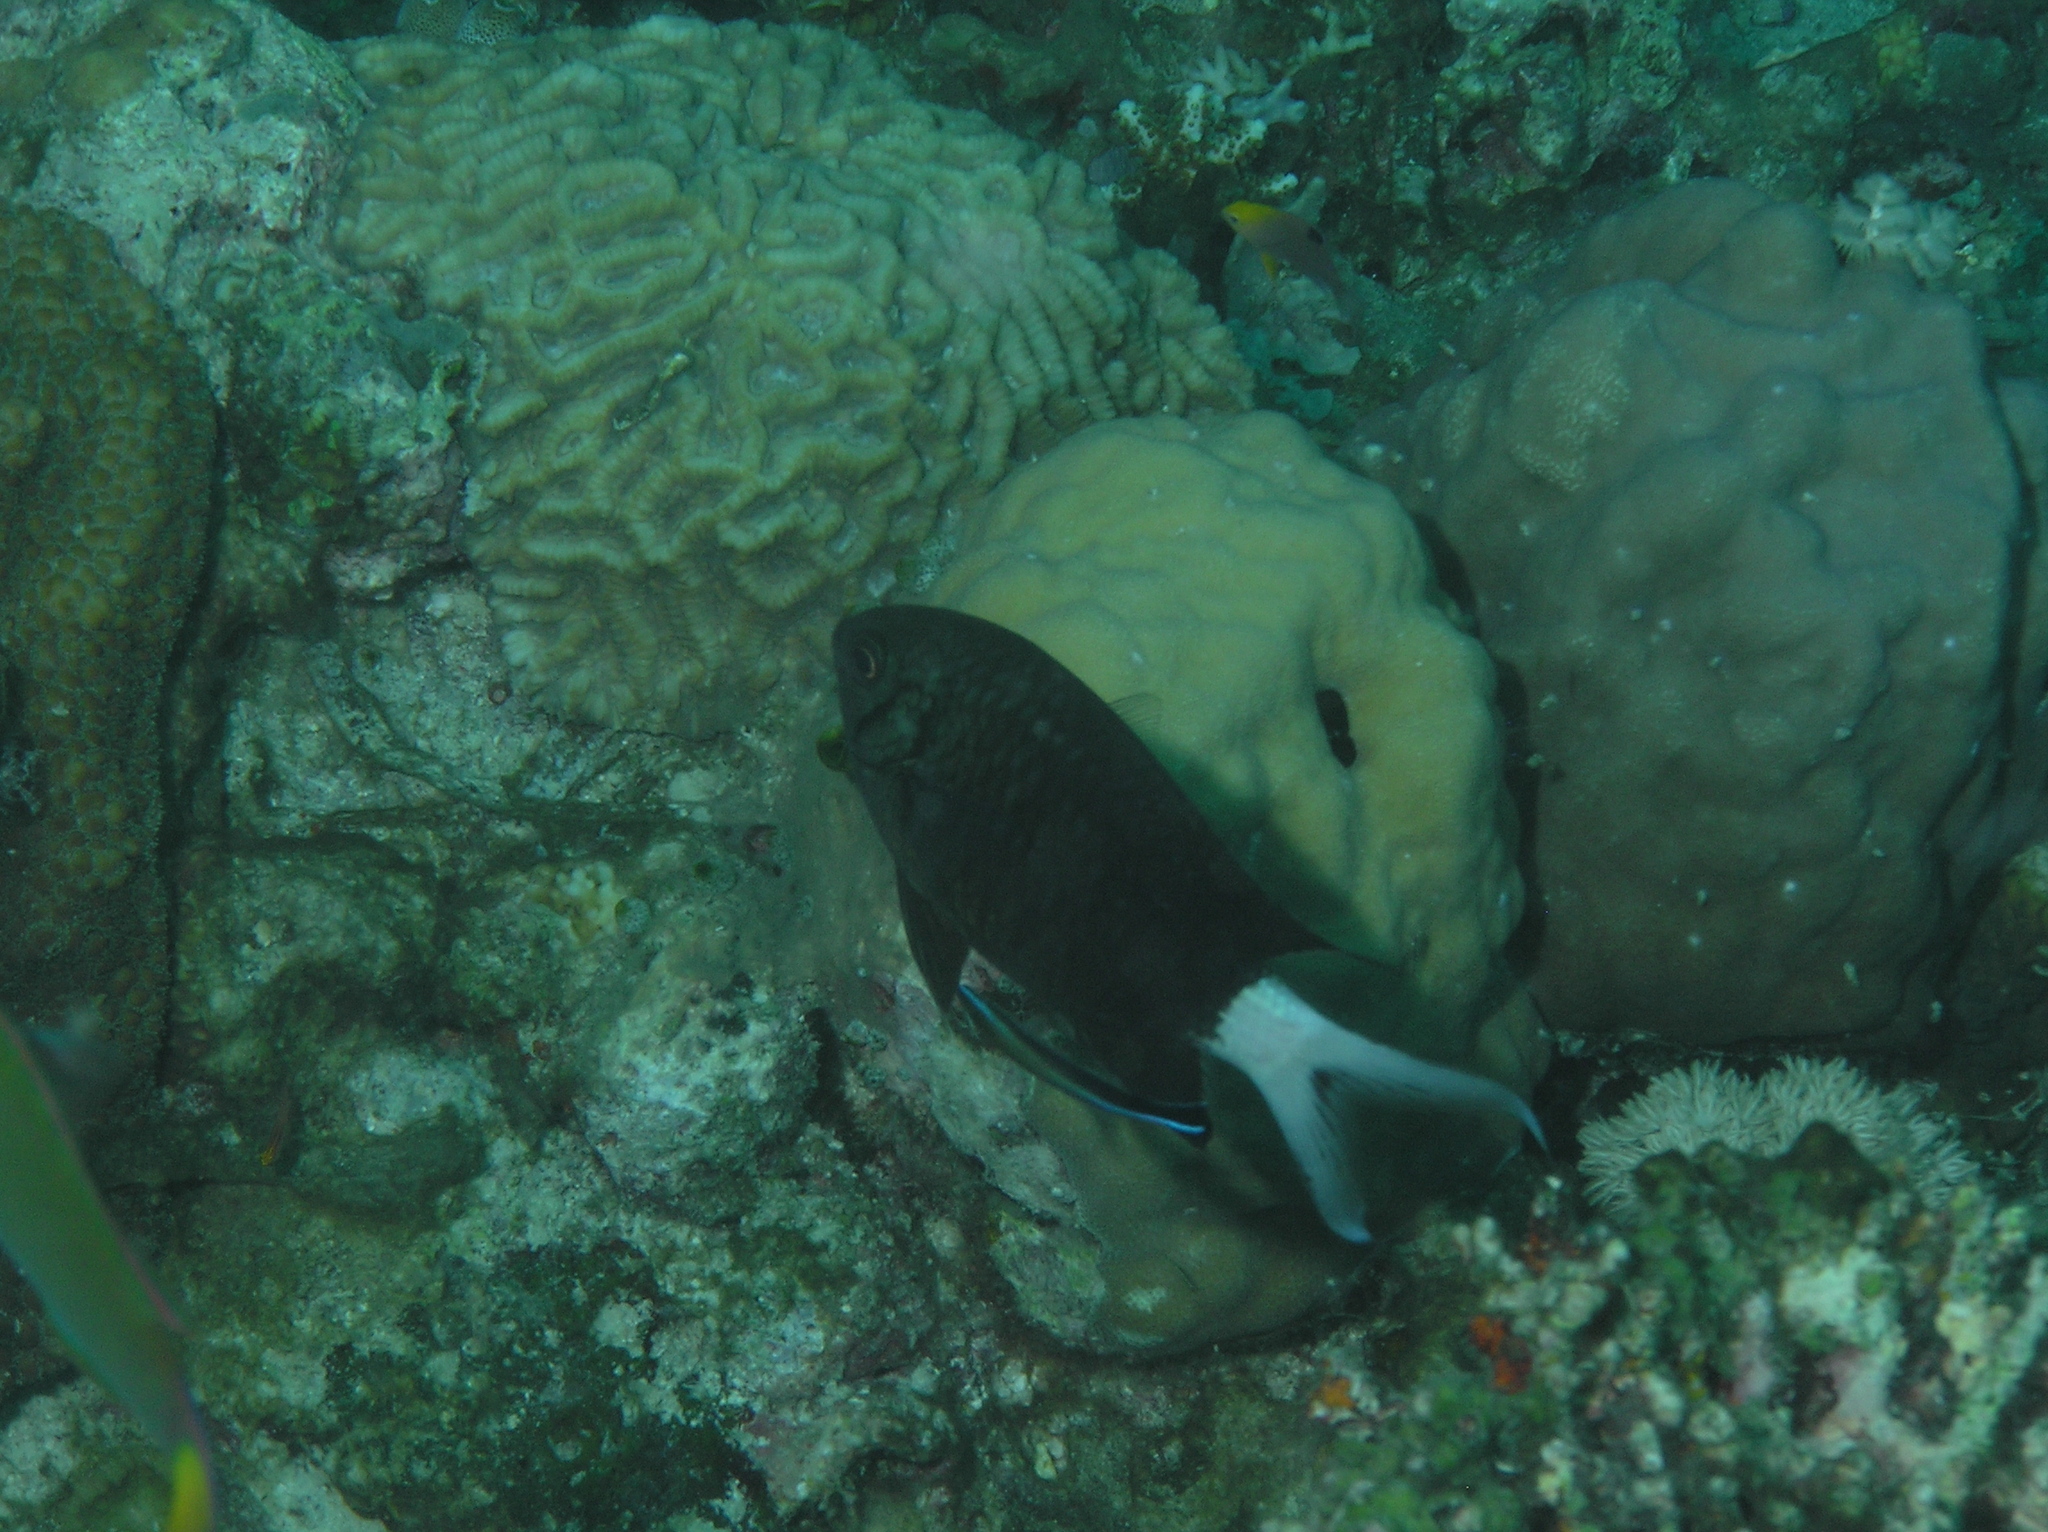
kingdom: Animalia
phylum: Chordata
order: Perciformes
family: Pomacentridae
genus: Chromis
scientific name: Chromis xanthura
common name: Black chromis
